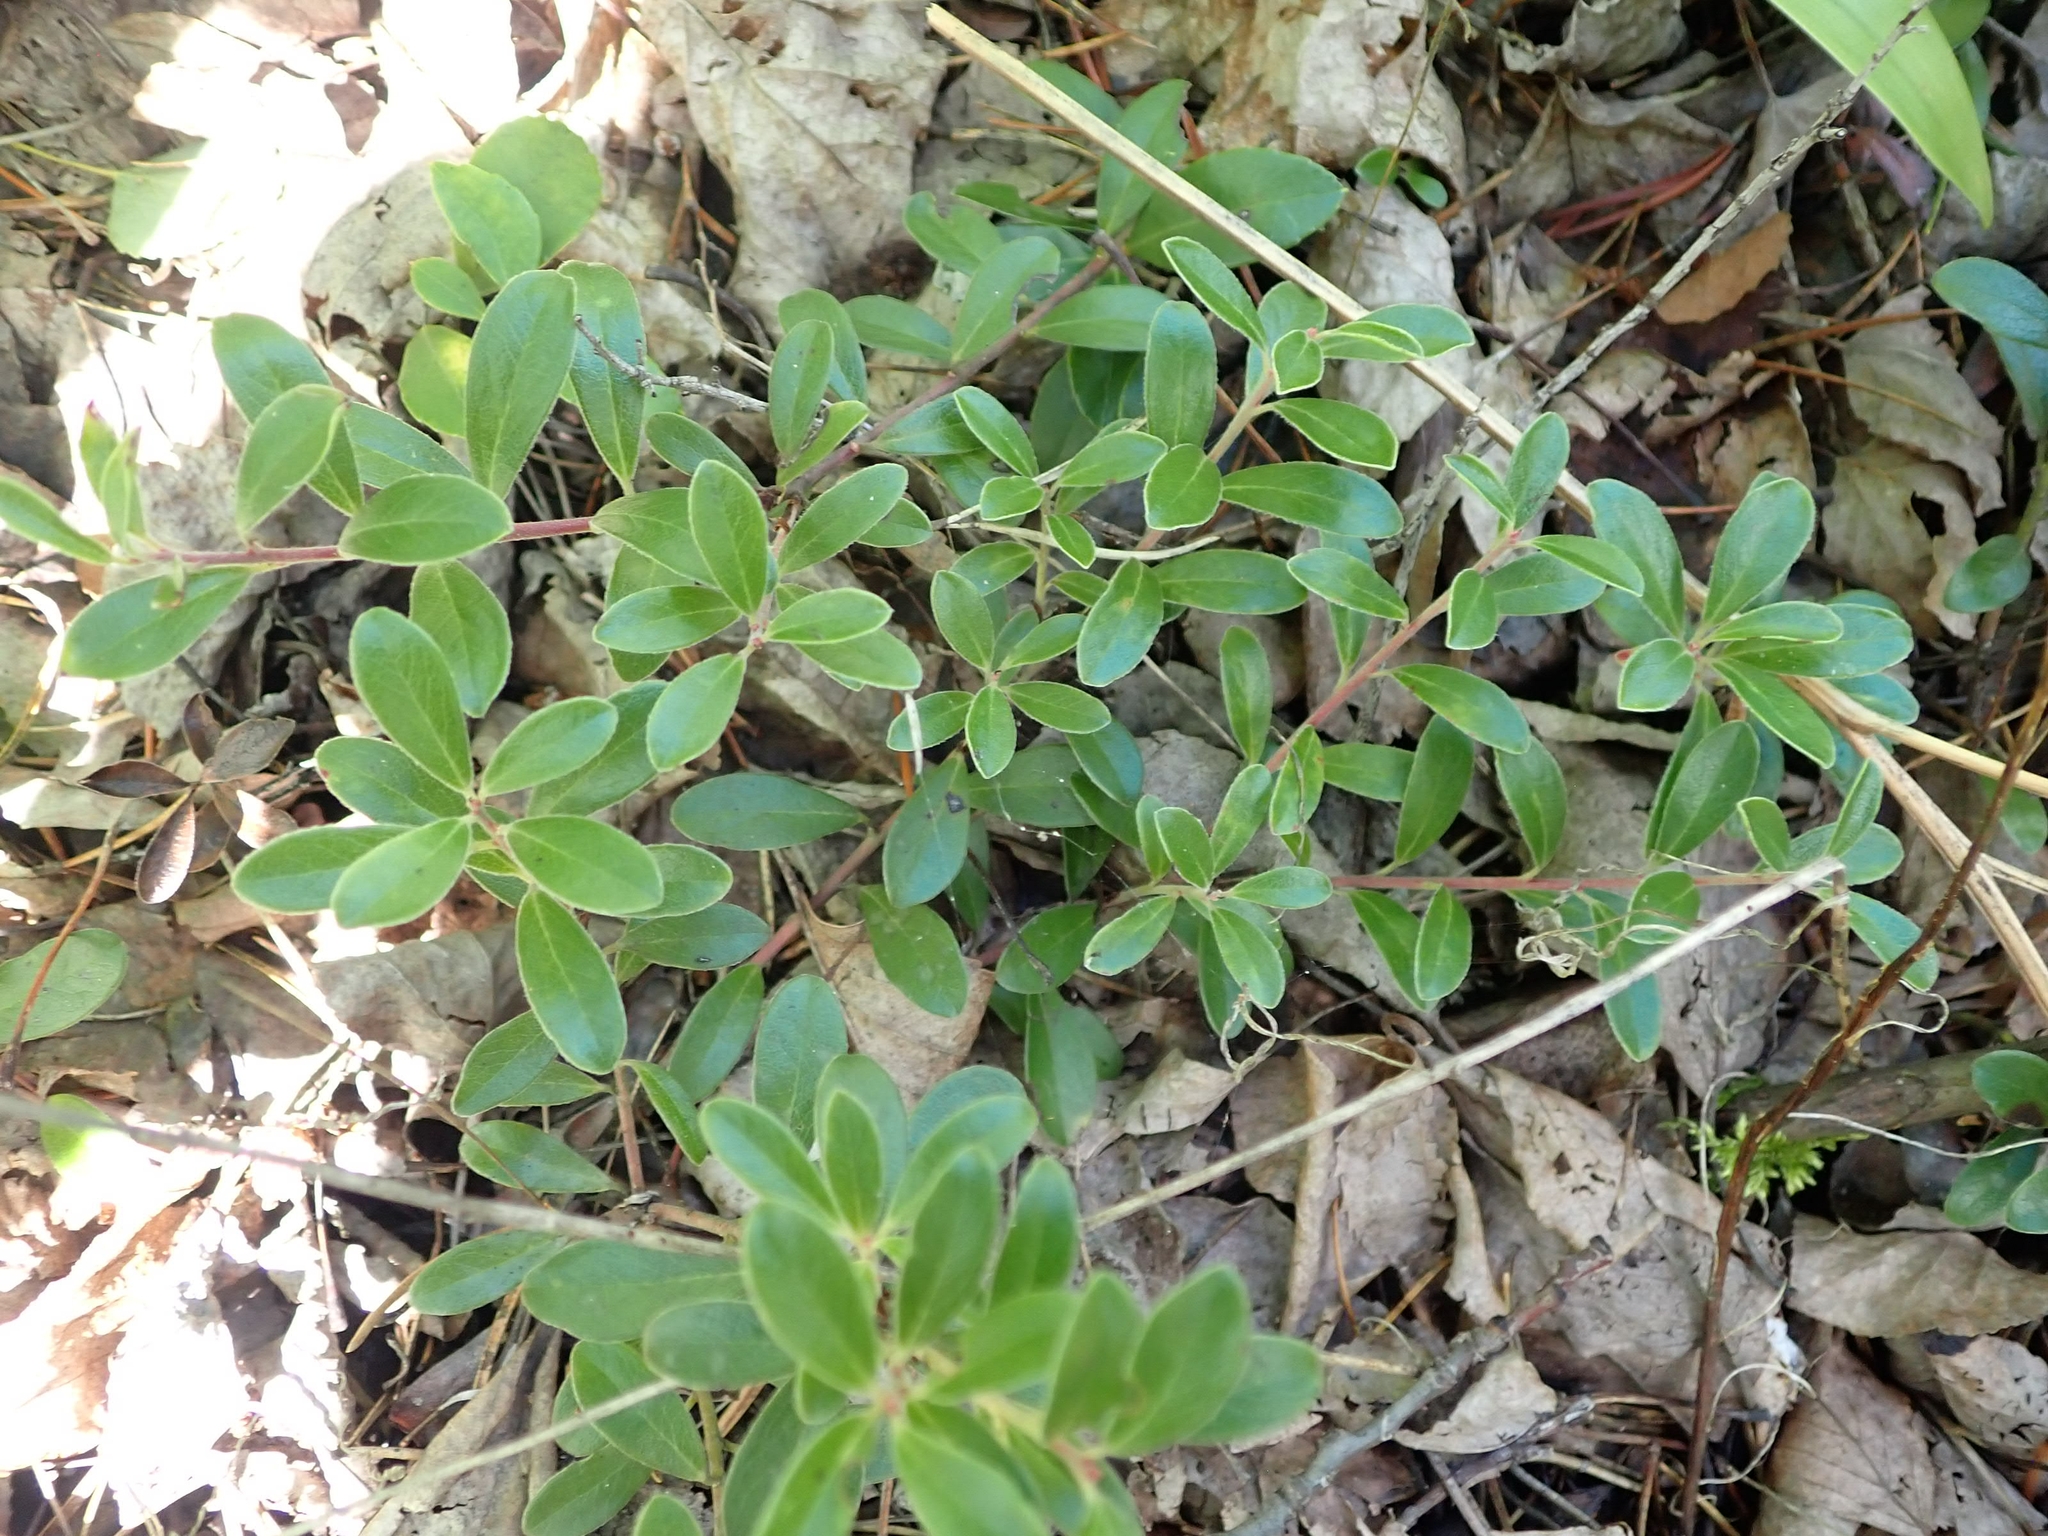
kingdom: Plantae
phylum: Tracheophyta
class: Magnoliopsida
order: Ericales
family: Ericaceae
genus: Arctostaphylos
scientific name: Arctostaphylos uva-ursi
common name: Bearberry
